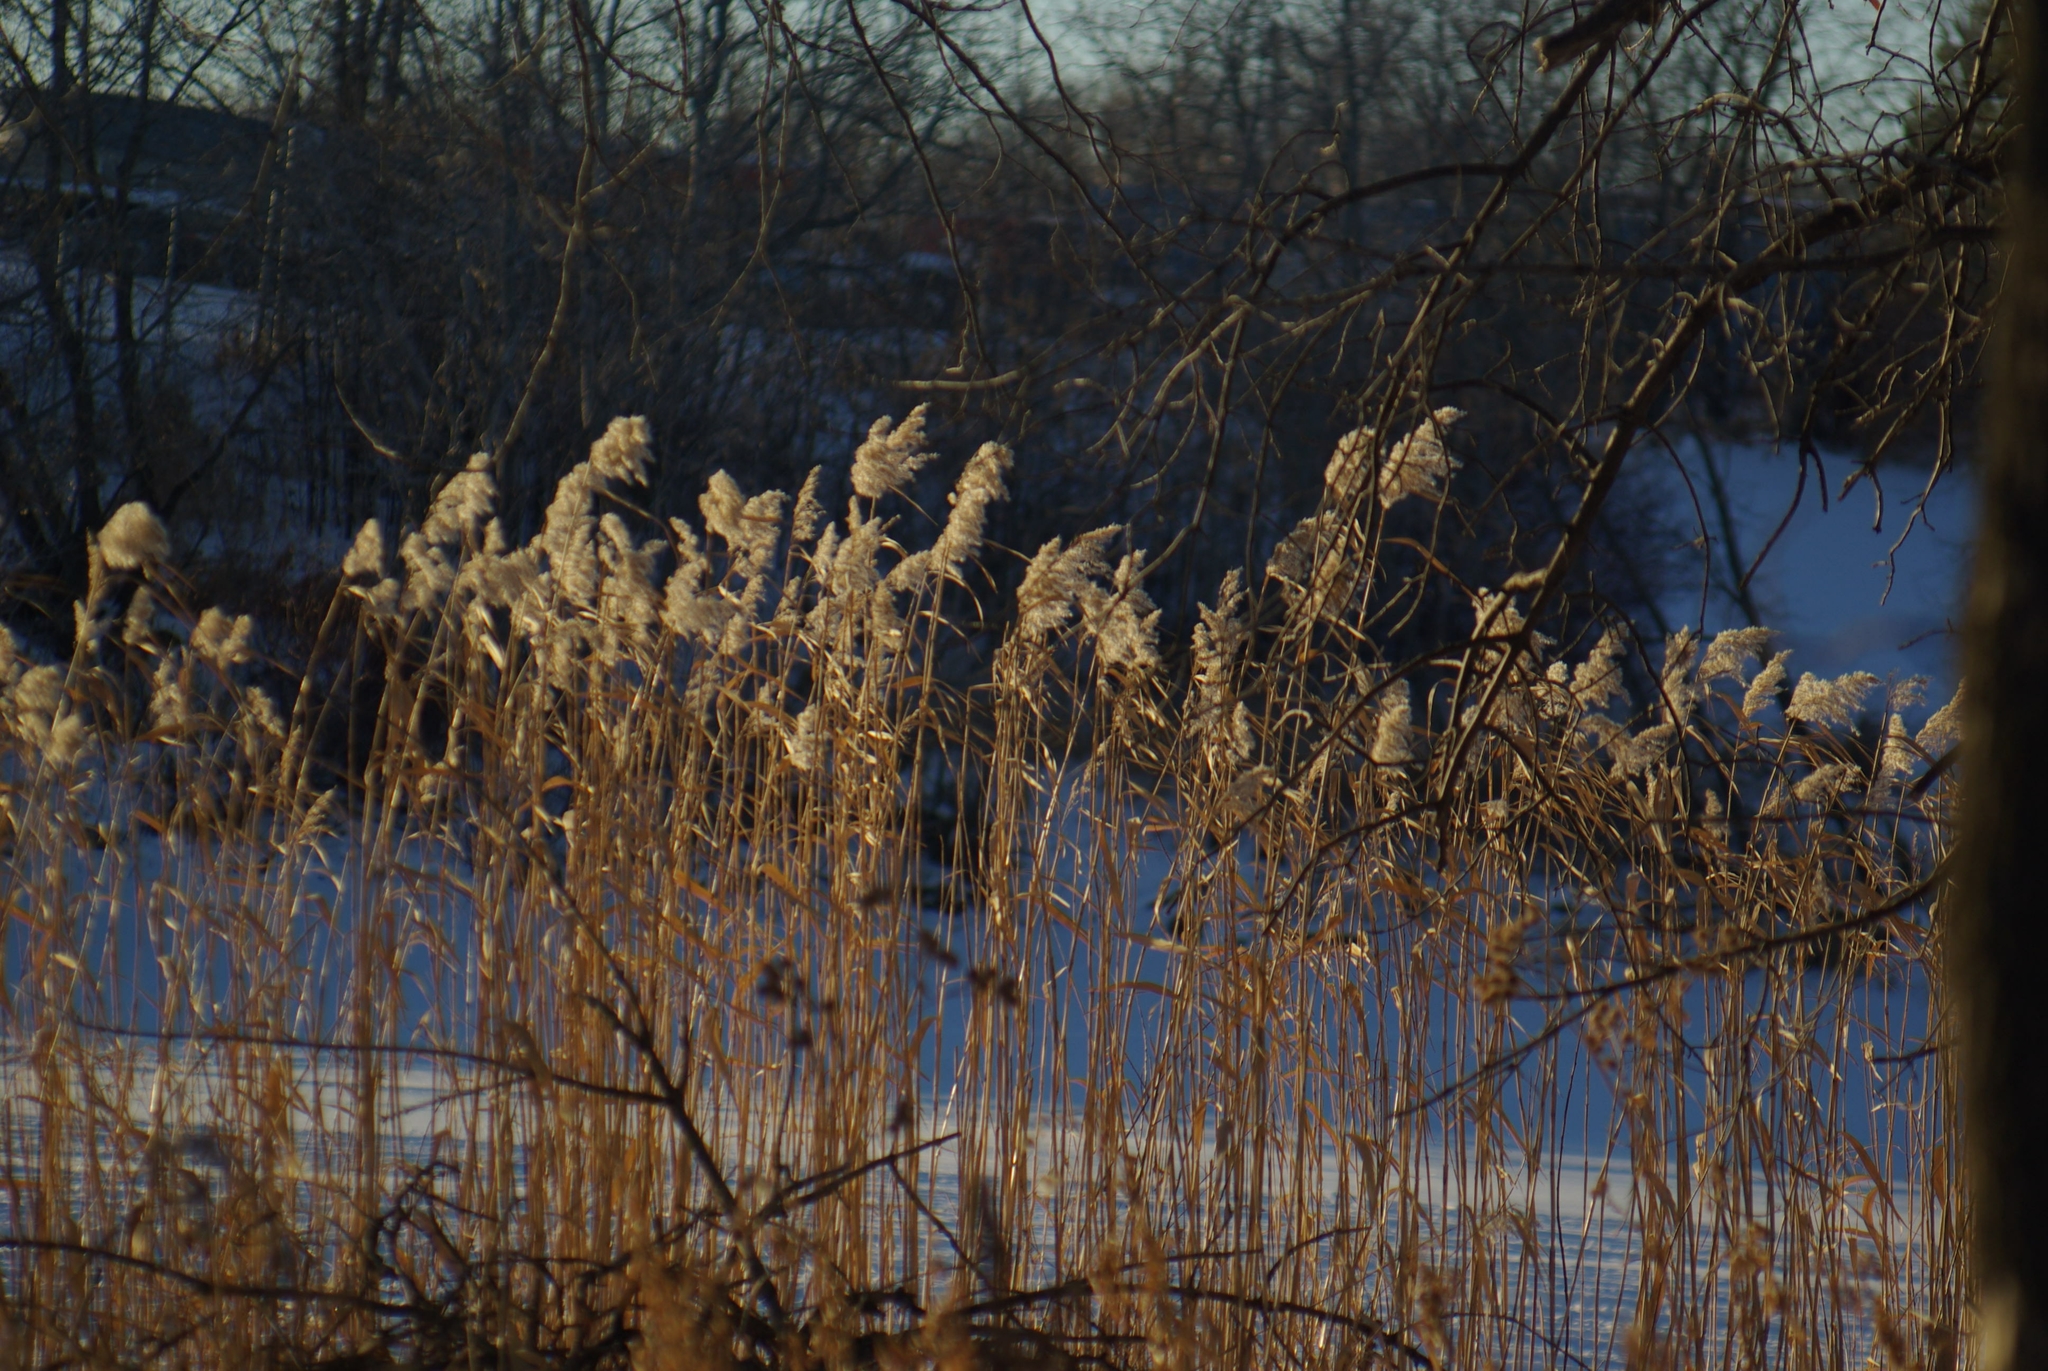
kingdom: Plantae
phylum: Tracheophyta
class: Liliopsida
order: Poales
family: Poaceae
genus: Phragmites
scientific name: Phragmites australis
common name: Common reed
